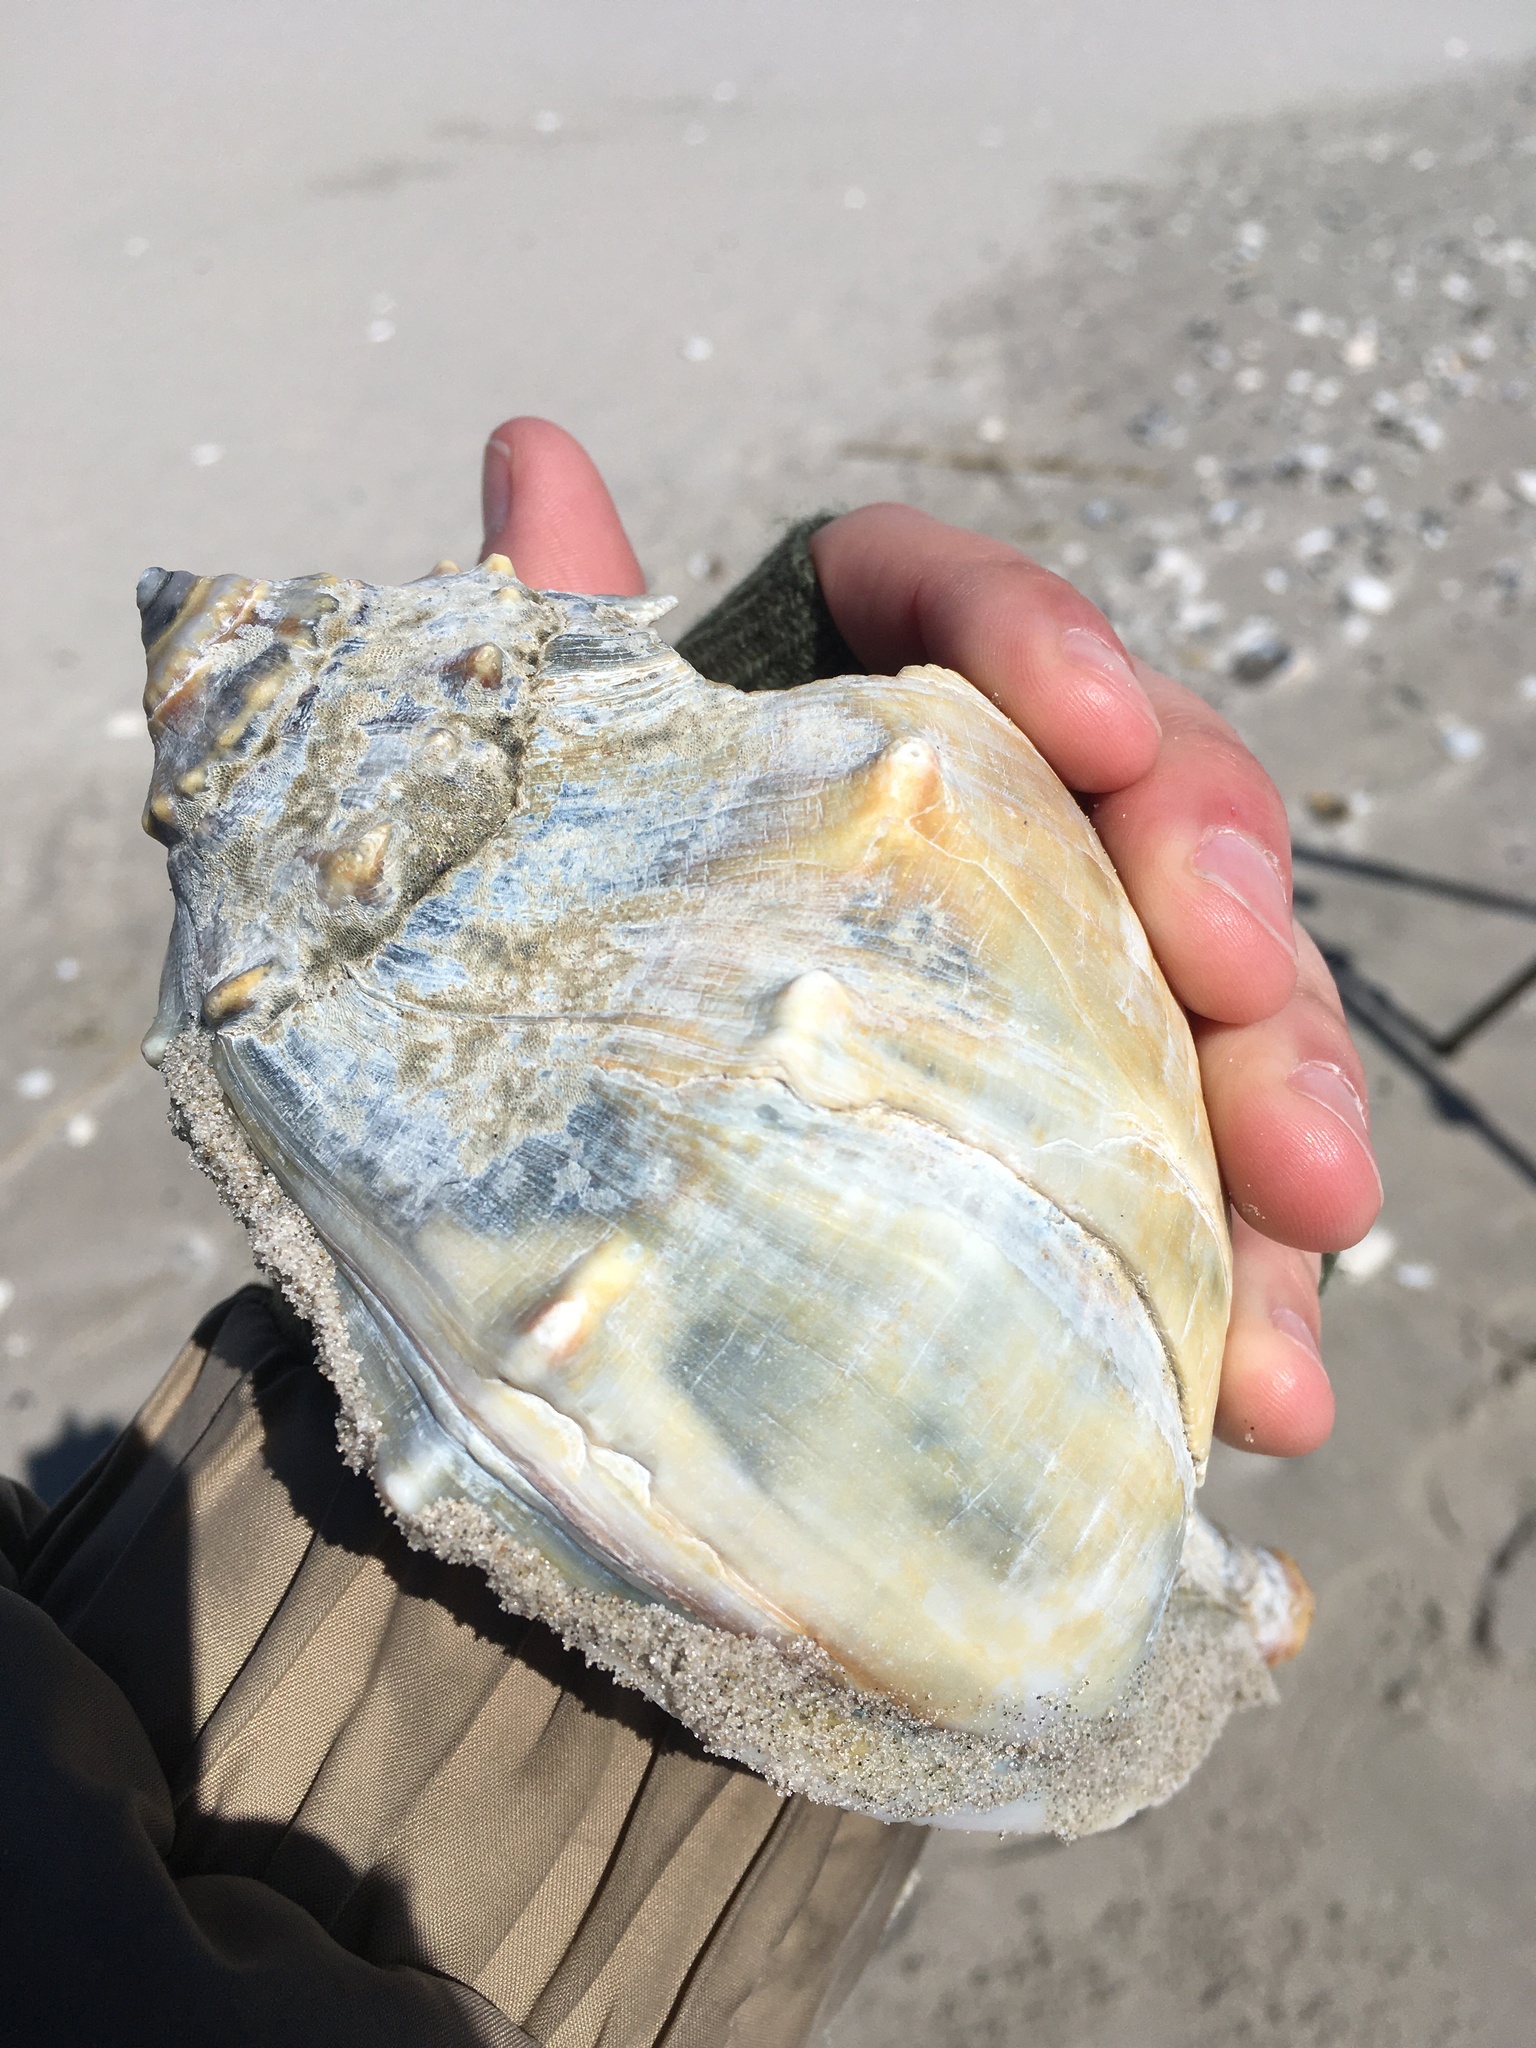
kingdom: Animalia
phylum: Mollusca
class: Gastropoda
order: Neogastropoda
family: Busyconidae
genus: Busycon
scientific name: Busycon carica
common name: Knobbed whelk
